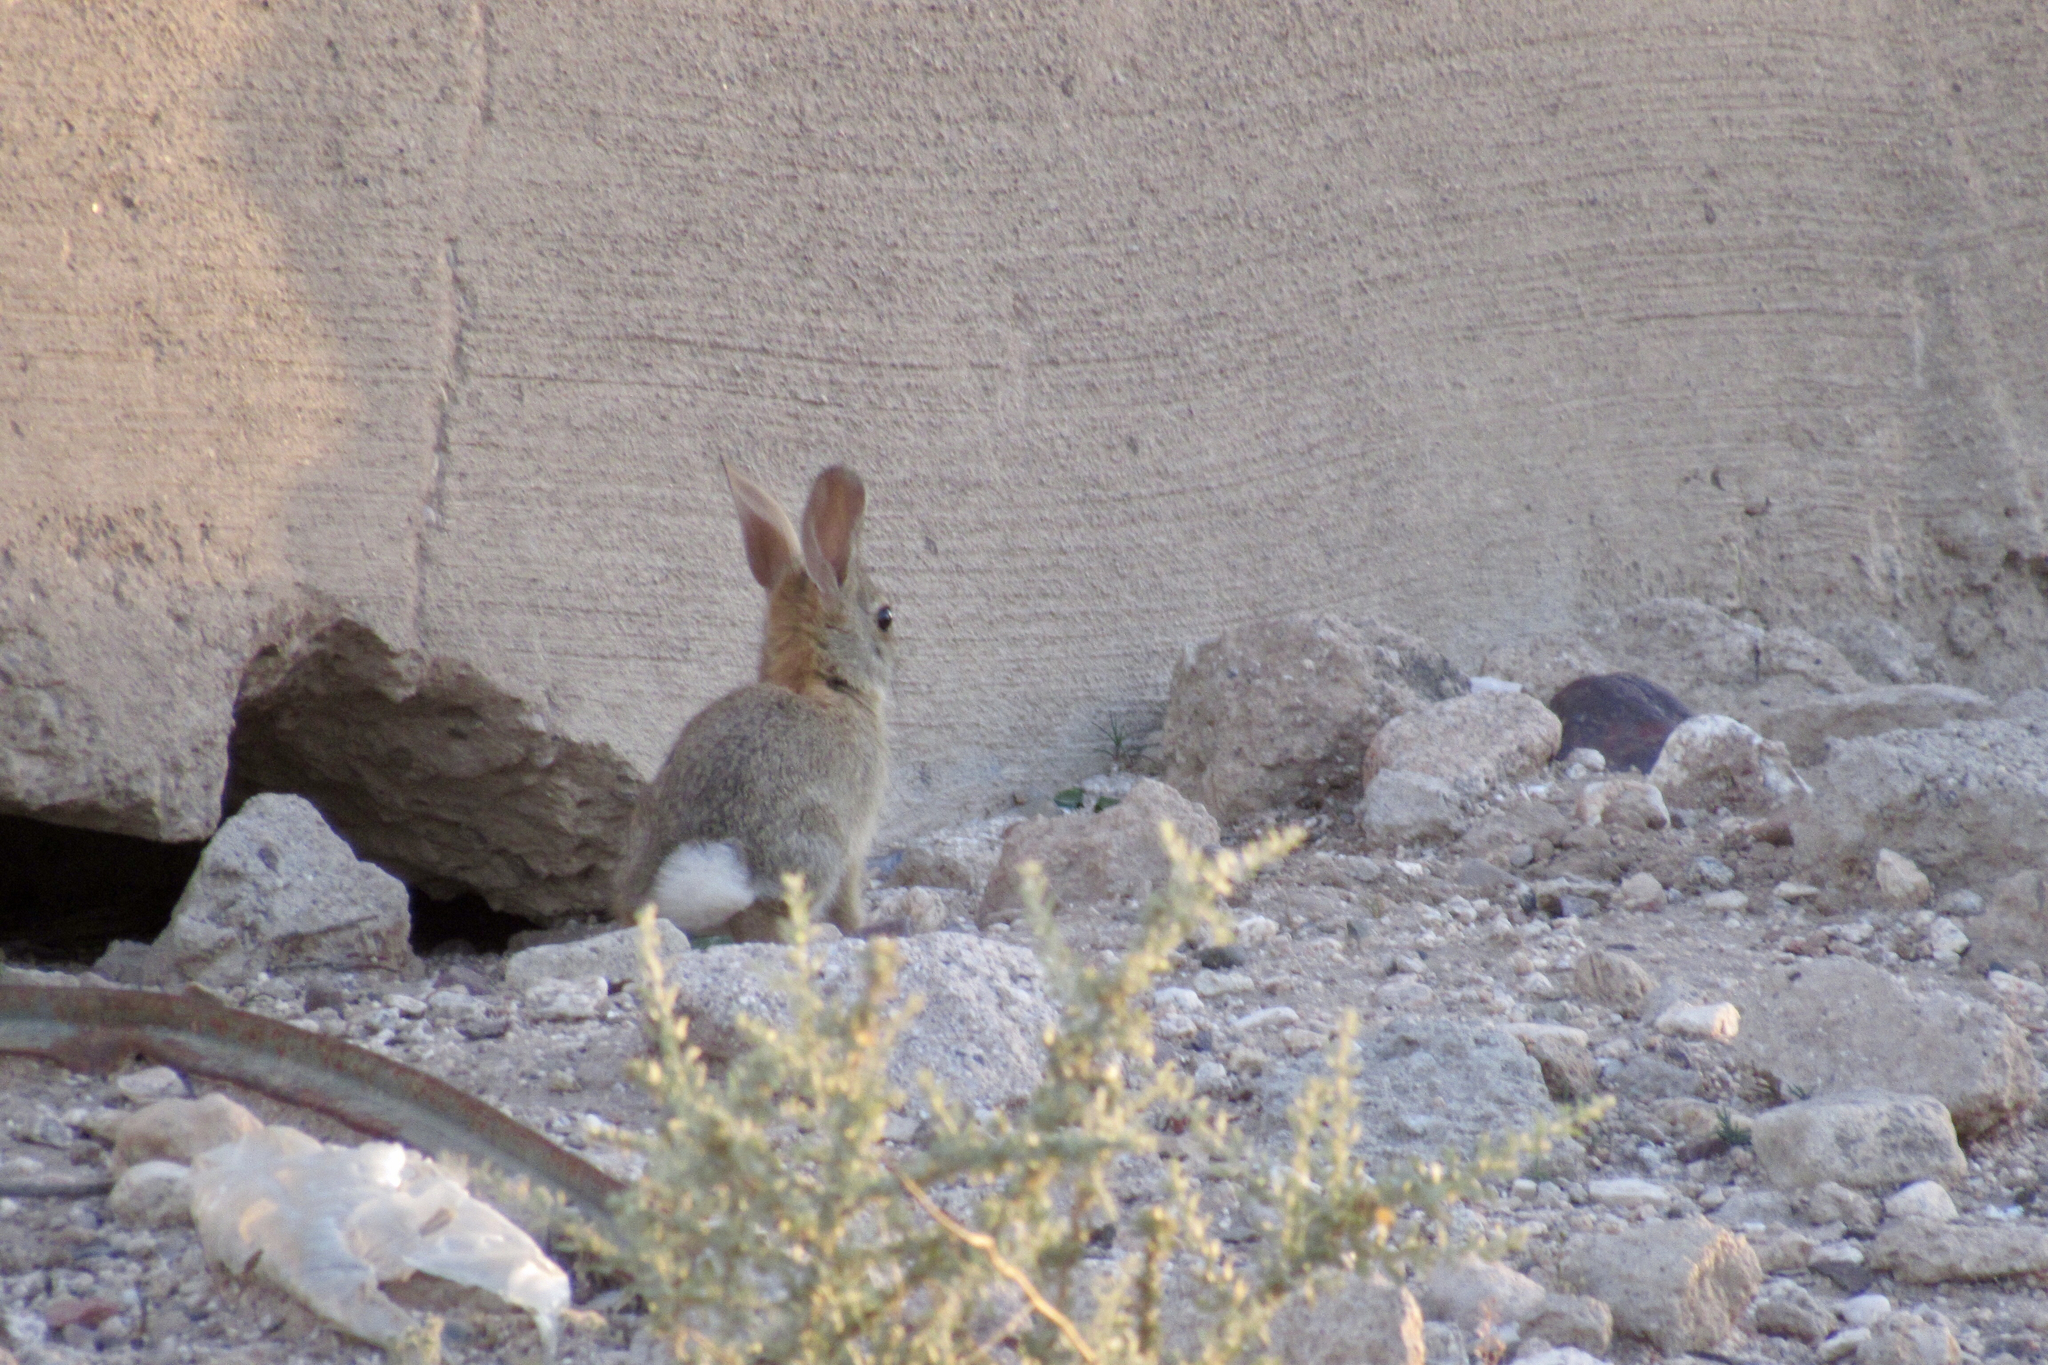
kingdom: Animalia
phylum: Chordata
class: Mammalia
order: Lagomorpha
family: Leporidae
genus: Sylvilagus
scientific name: Sylvilagus audubonii
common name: Desert cottontail
